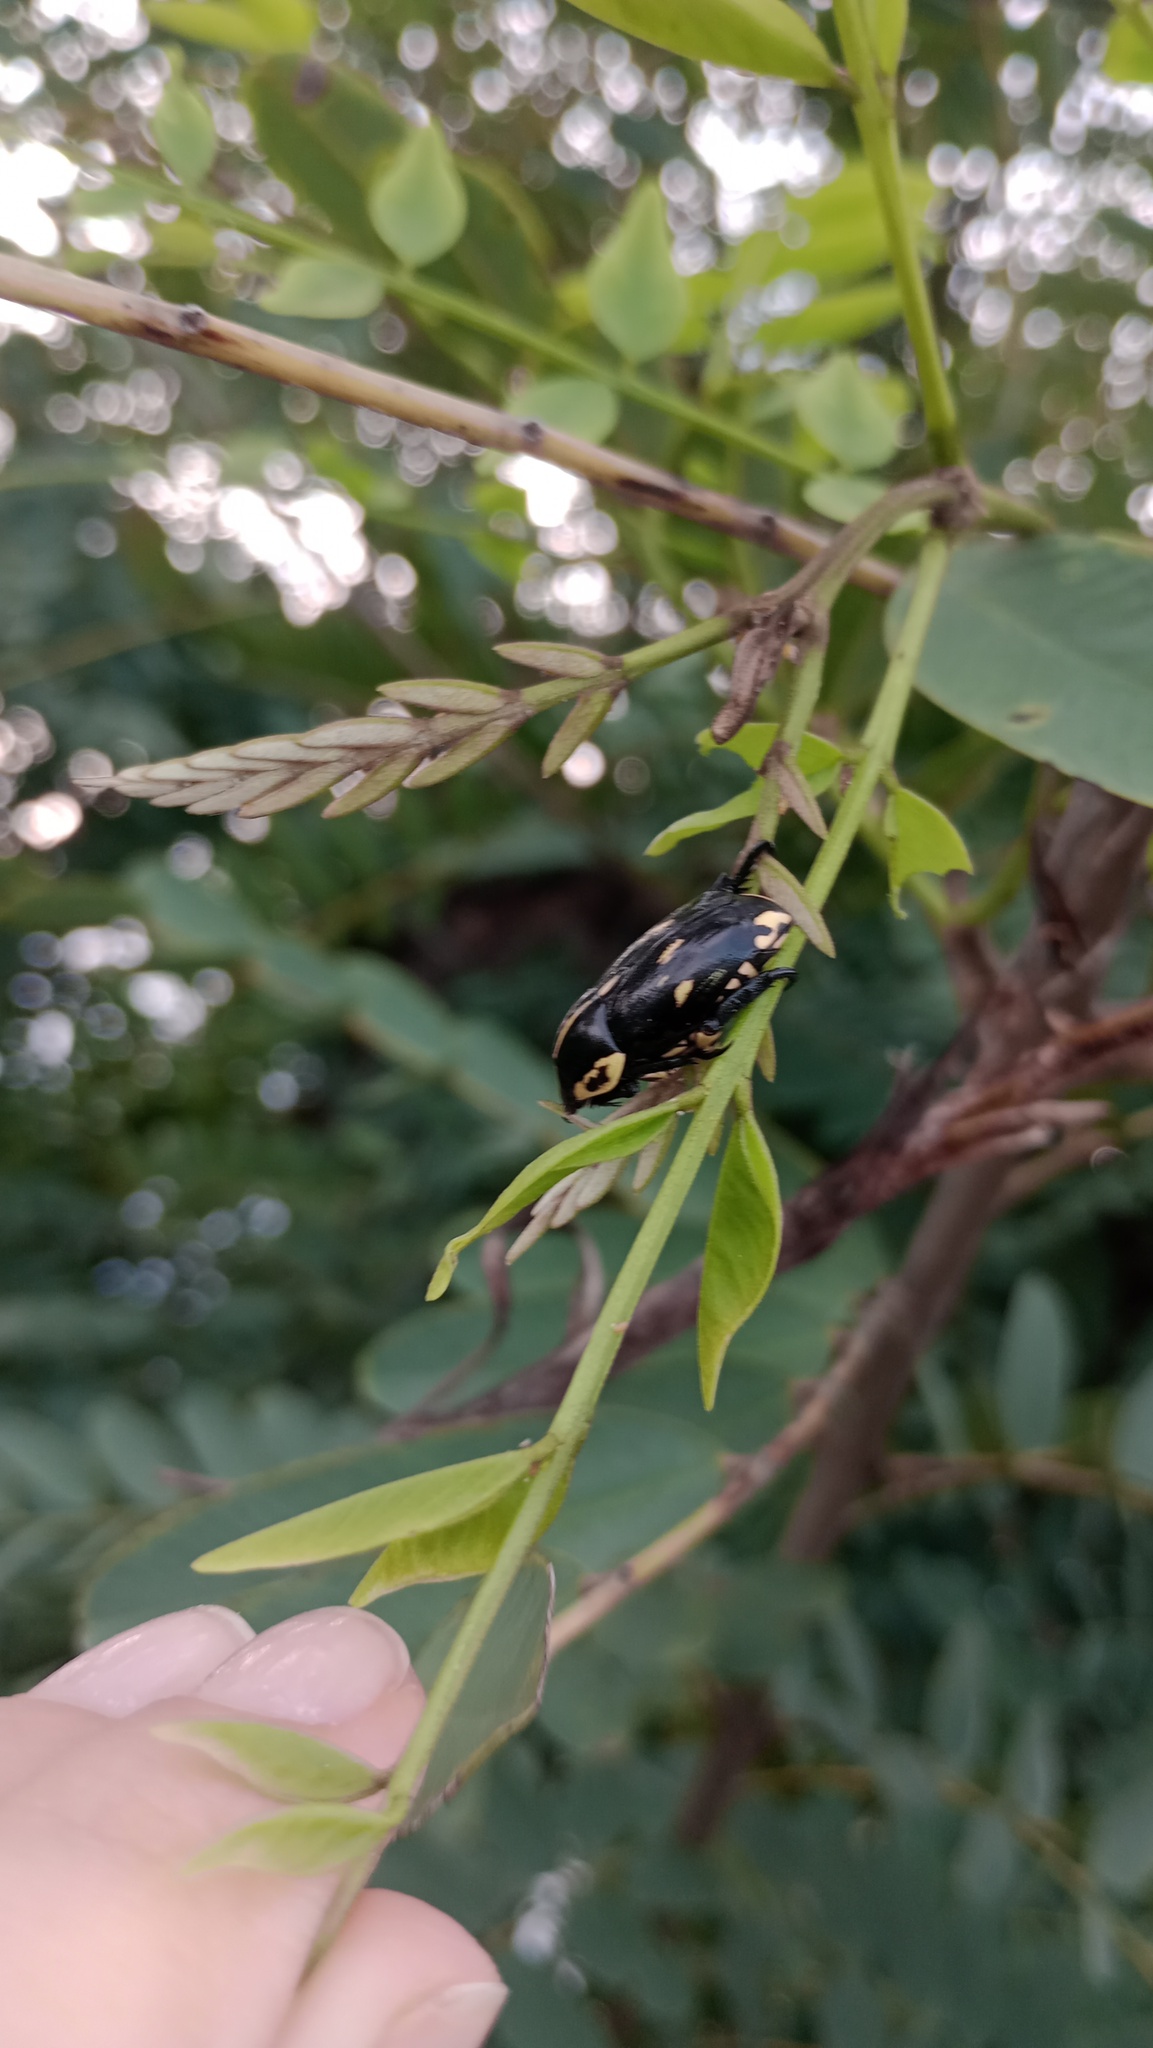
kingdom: Animalia
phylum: Arthropoda
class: Insecta
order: Coleoptera
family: Scarabaeidae
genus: Rutela
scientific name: Rutela lineola
